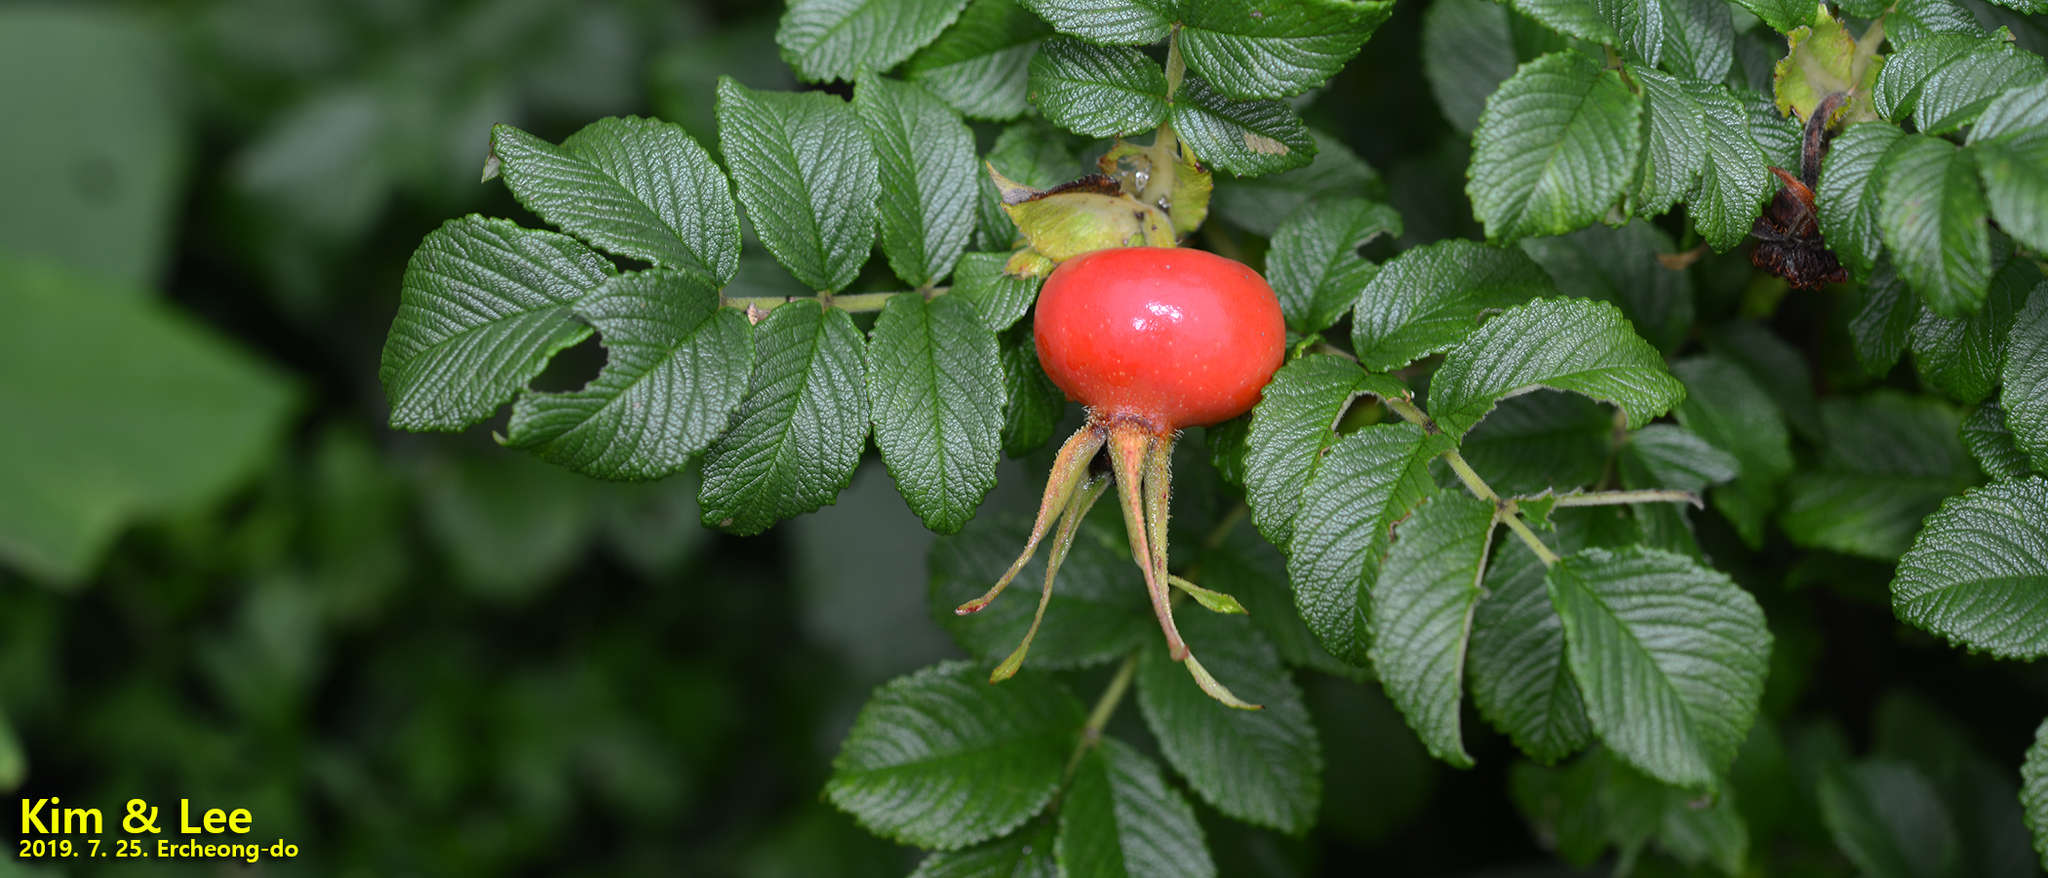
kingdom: Plantae
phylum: Tracheophyta
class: Magnoliopsida
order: Rosales
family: Rosaceae
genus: Rosa
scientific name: Rosa rugosa
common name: Japanese rose
